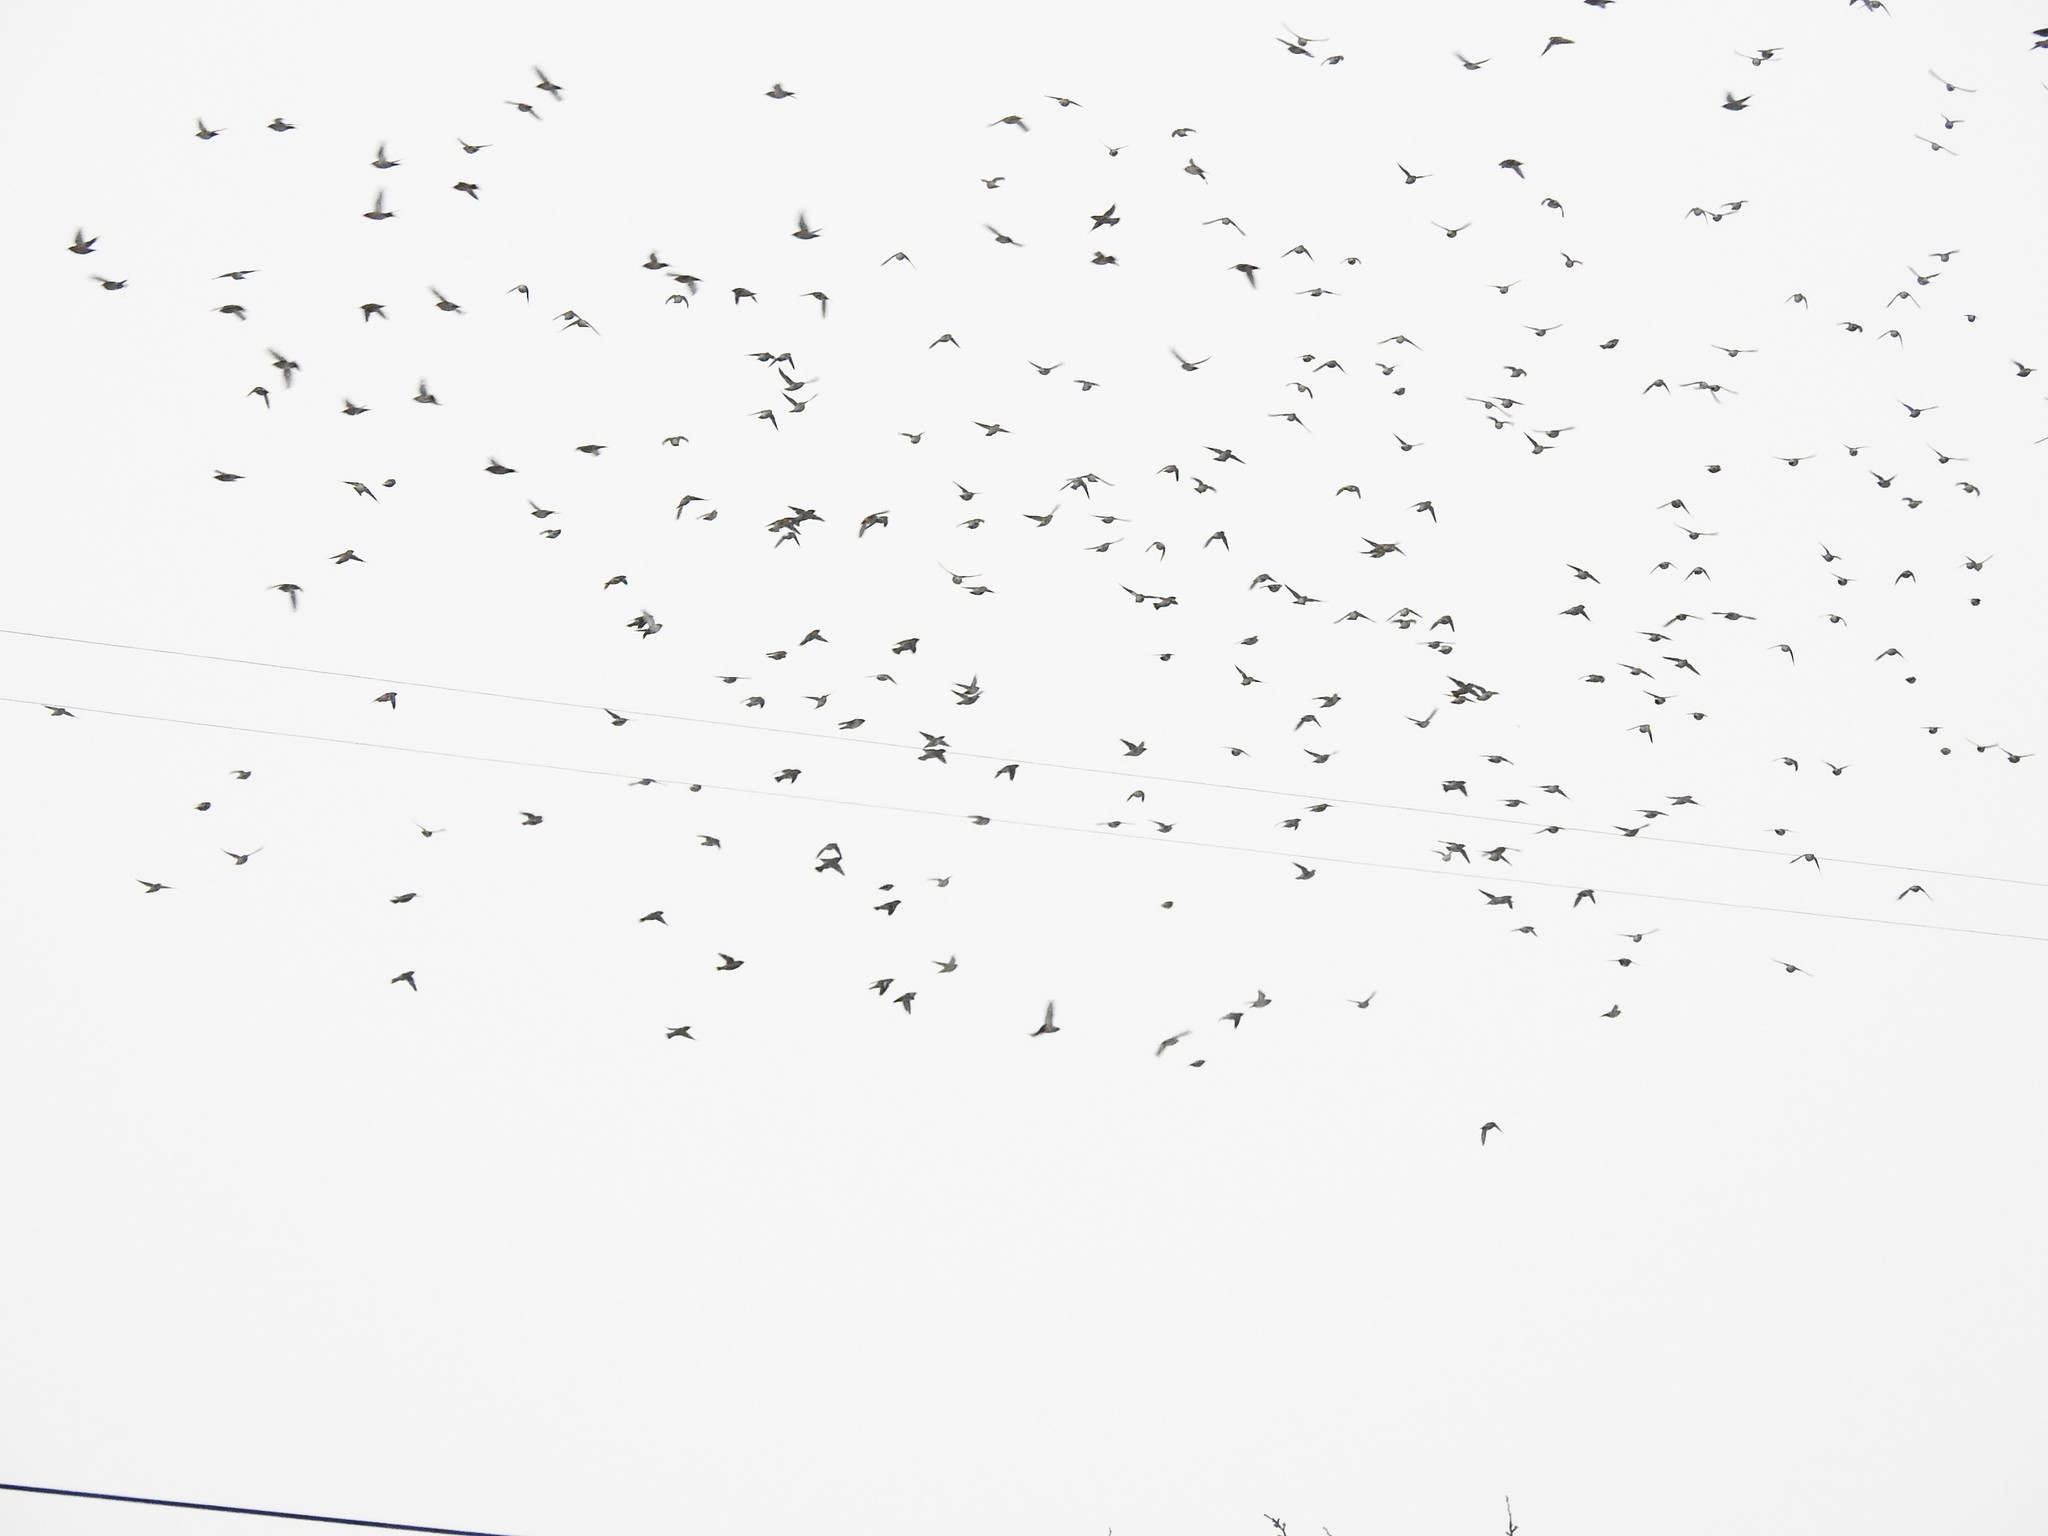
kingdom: Animalia
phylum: Chordata
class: Aves
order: Passeriformes
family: Bombycillidae
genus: Bombycilla
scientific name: Bombycilla garrulus
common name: Bohemian waxwing
